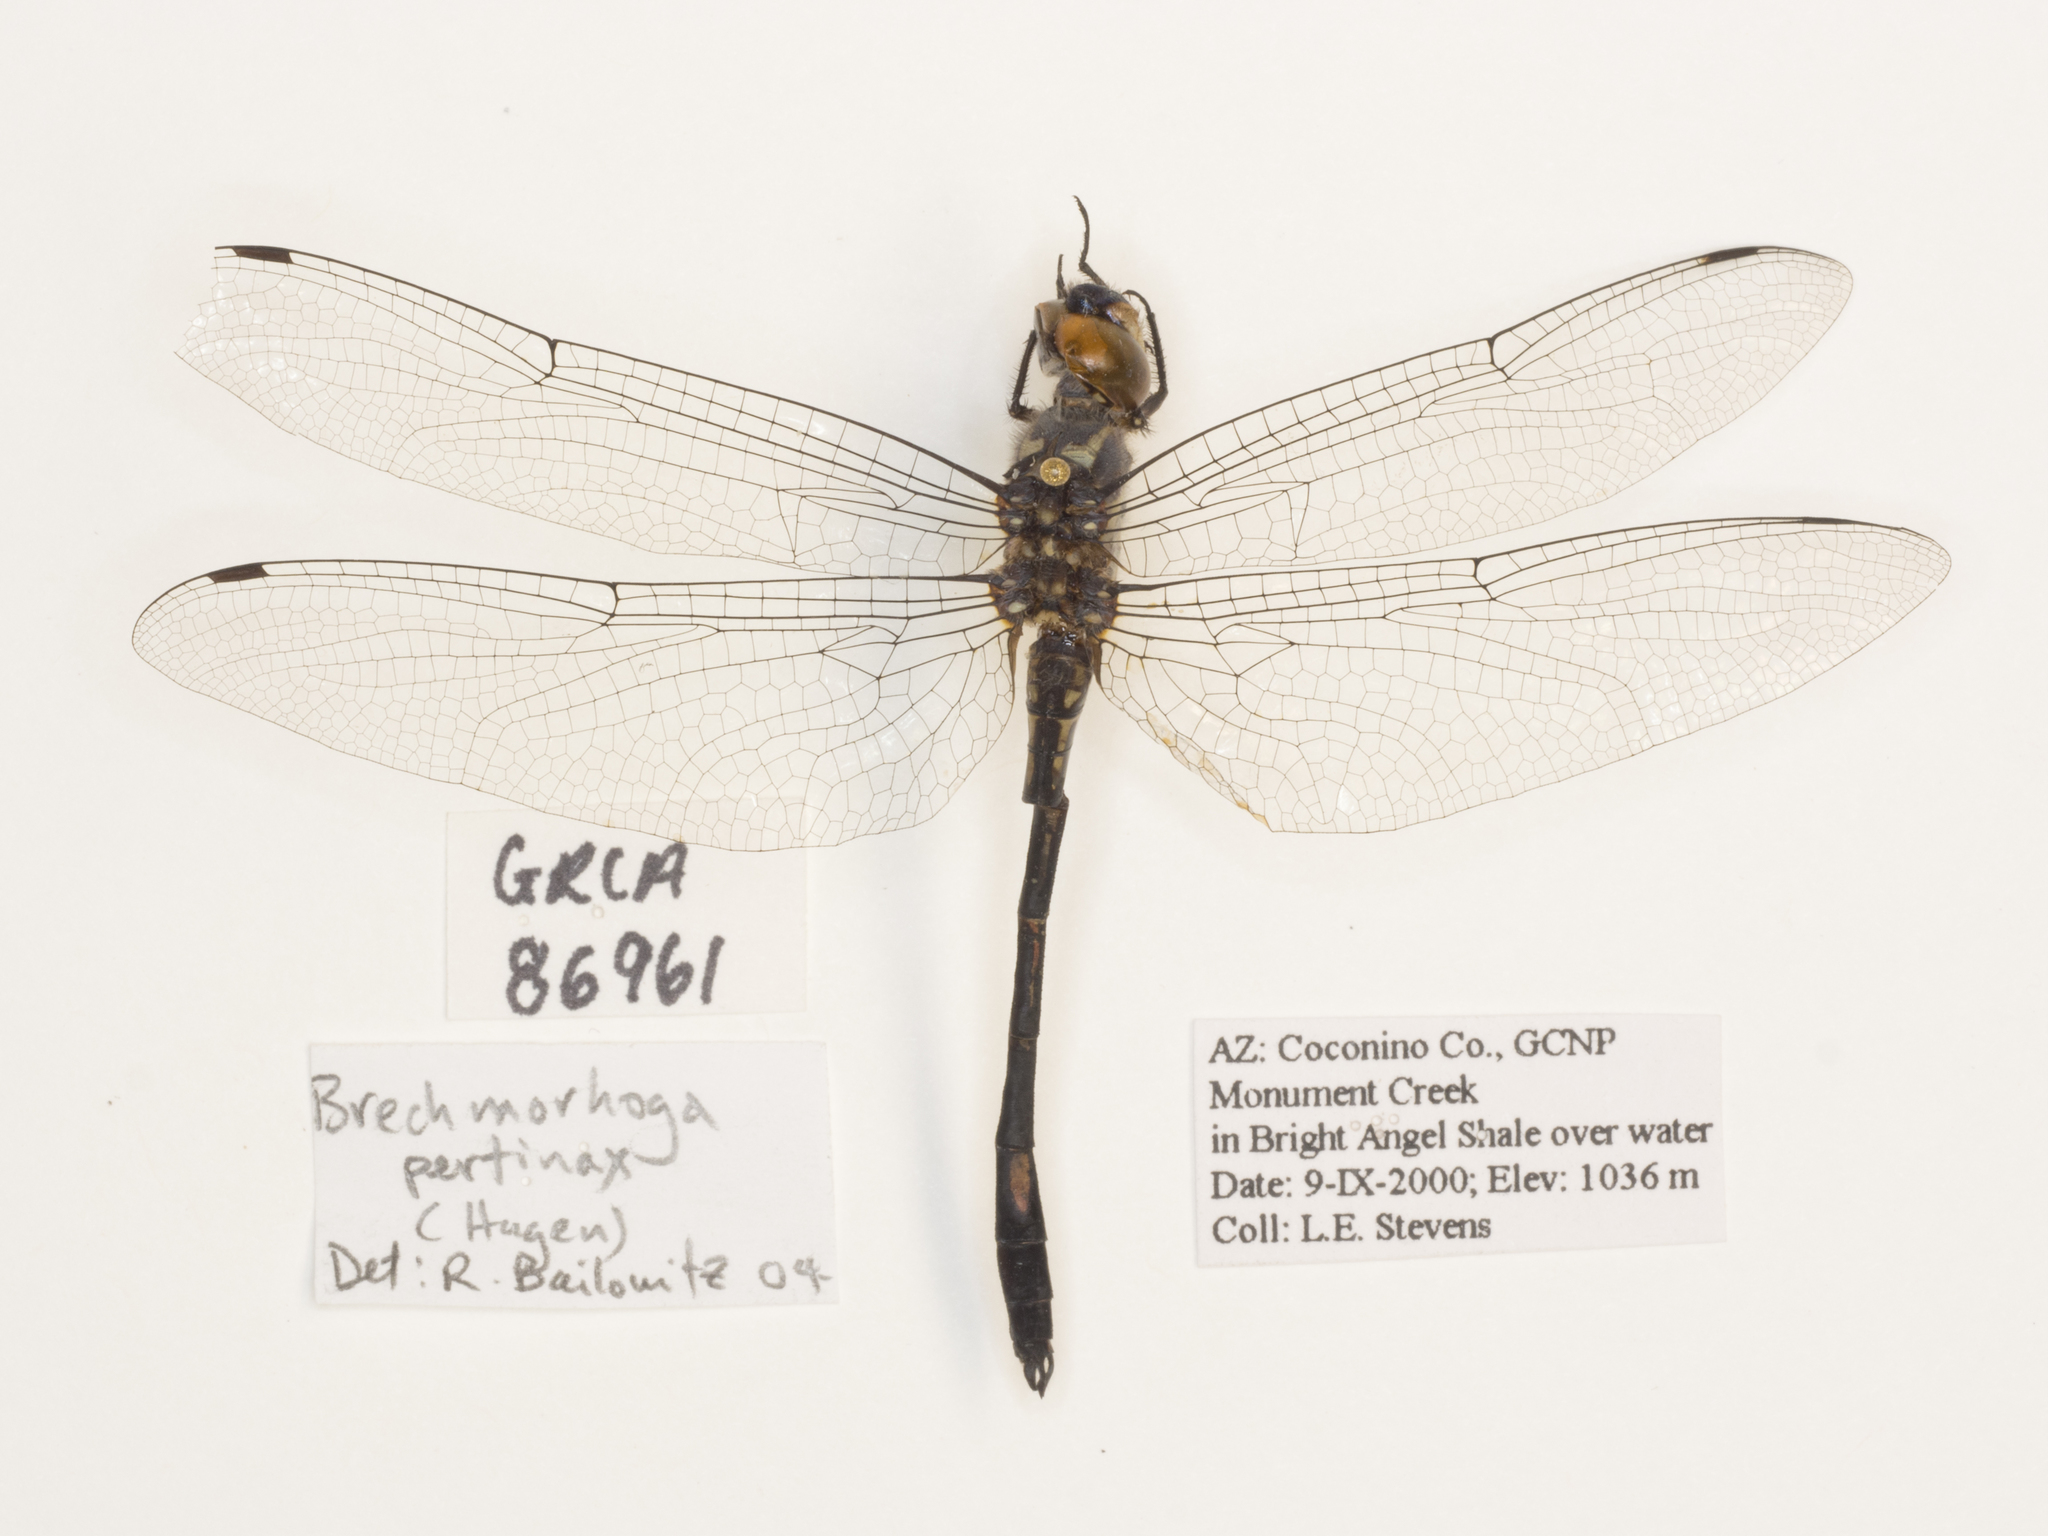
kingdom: Animalia
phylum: Arthropoda
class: Insecta
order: Odonata
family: Libellulidae
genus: Brechmorhoga
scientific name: Brechmorhoga pertinax
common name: Masked clubskimmer
